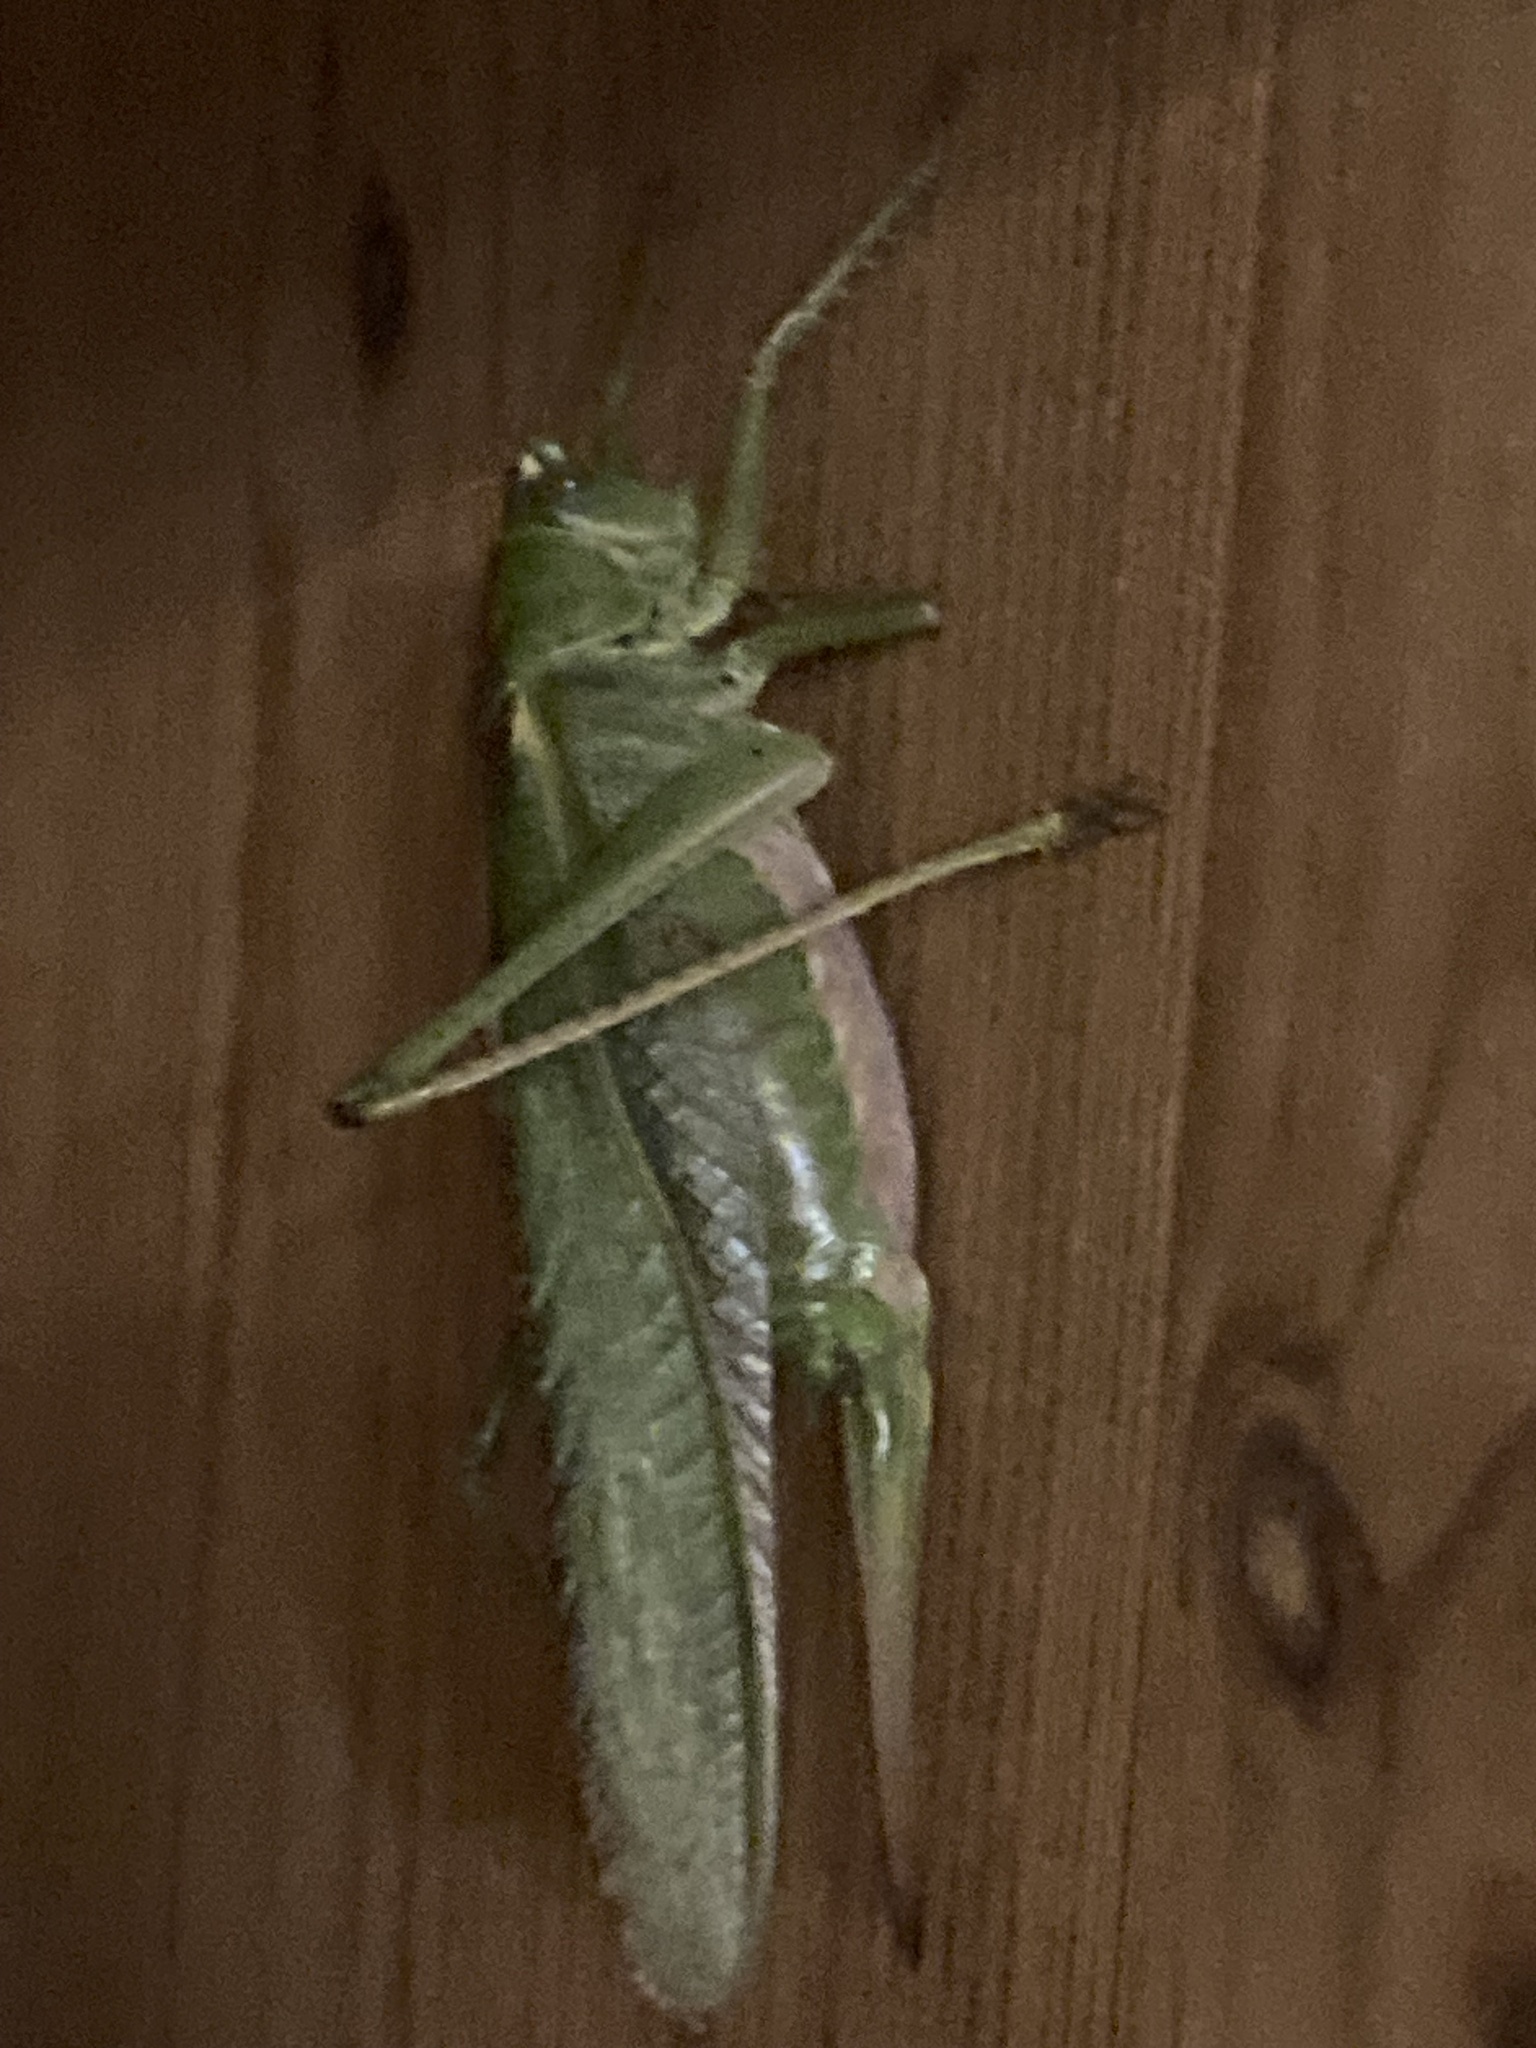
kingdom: Animalia
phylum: Arthropoda
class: Insecta
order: Orthoptera
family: Tettigoniidae
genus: Tettigonia
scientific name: Tettigonia viridissima
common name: Great green bush-cricket
